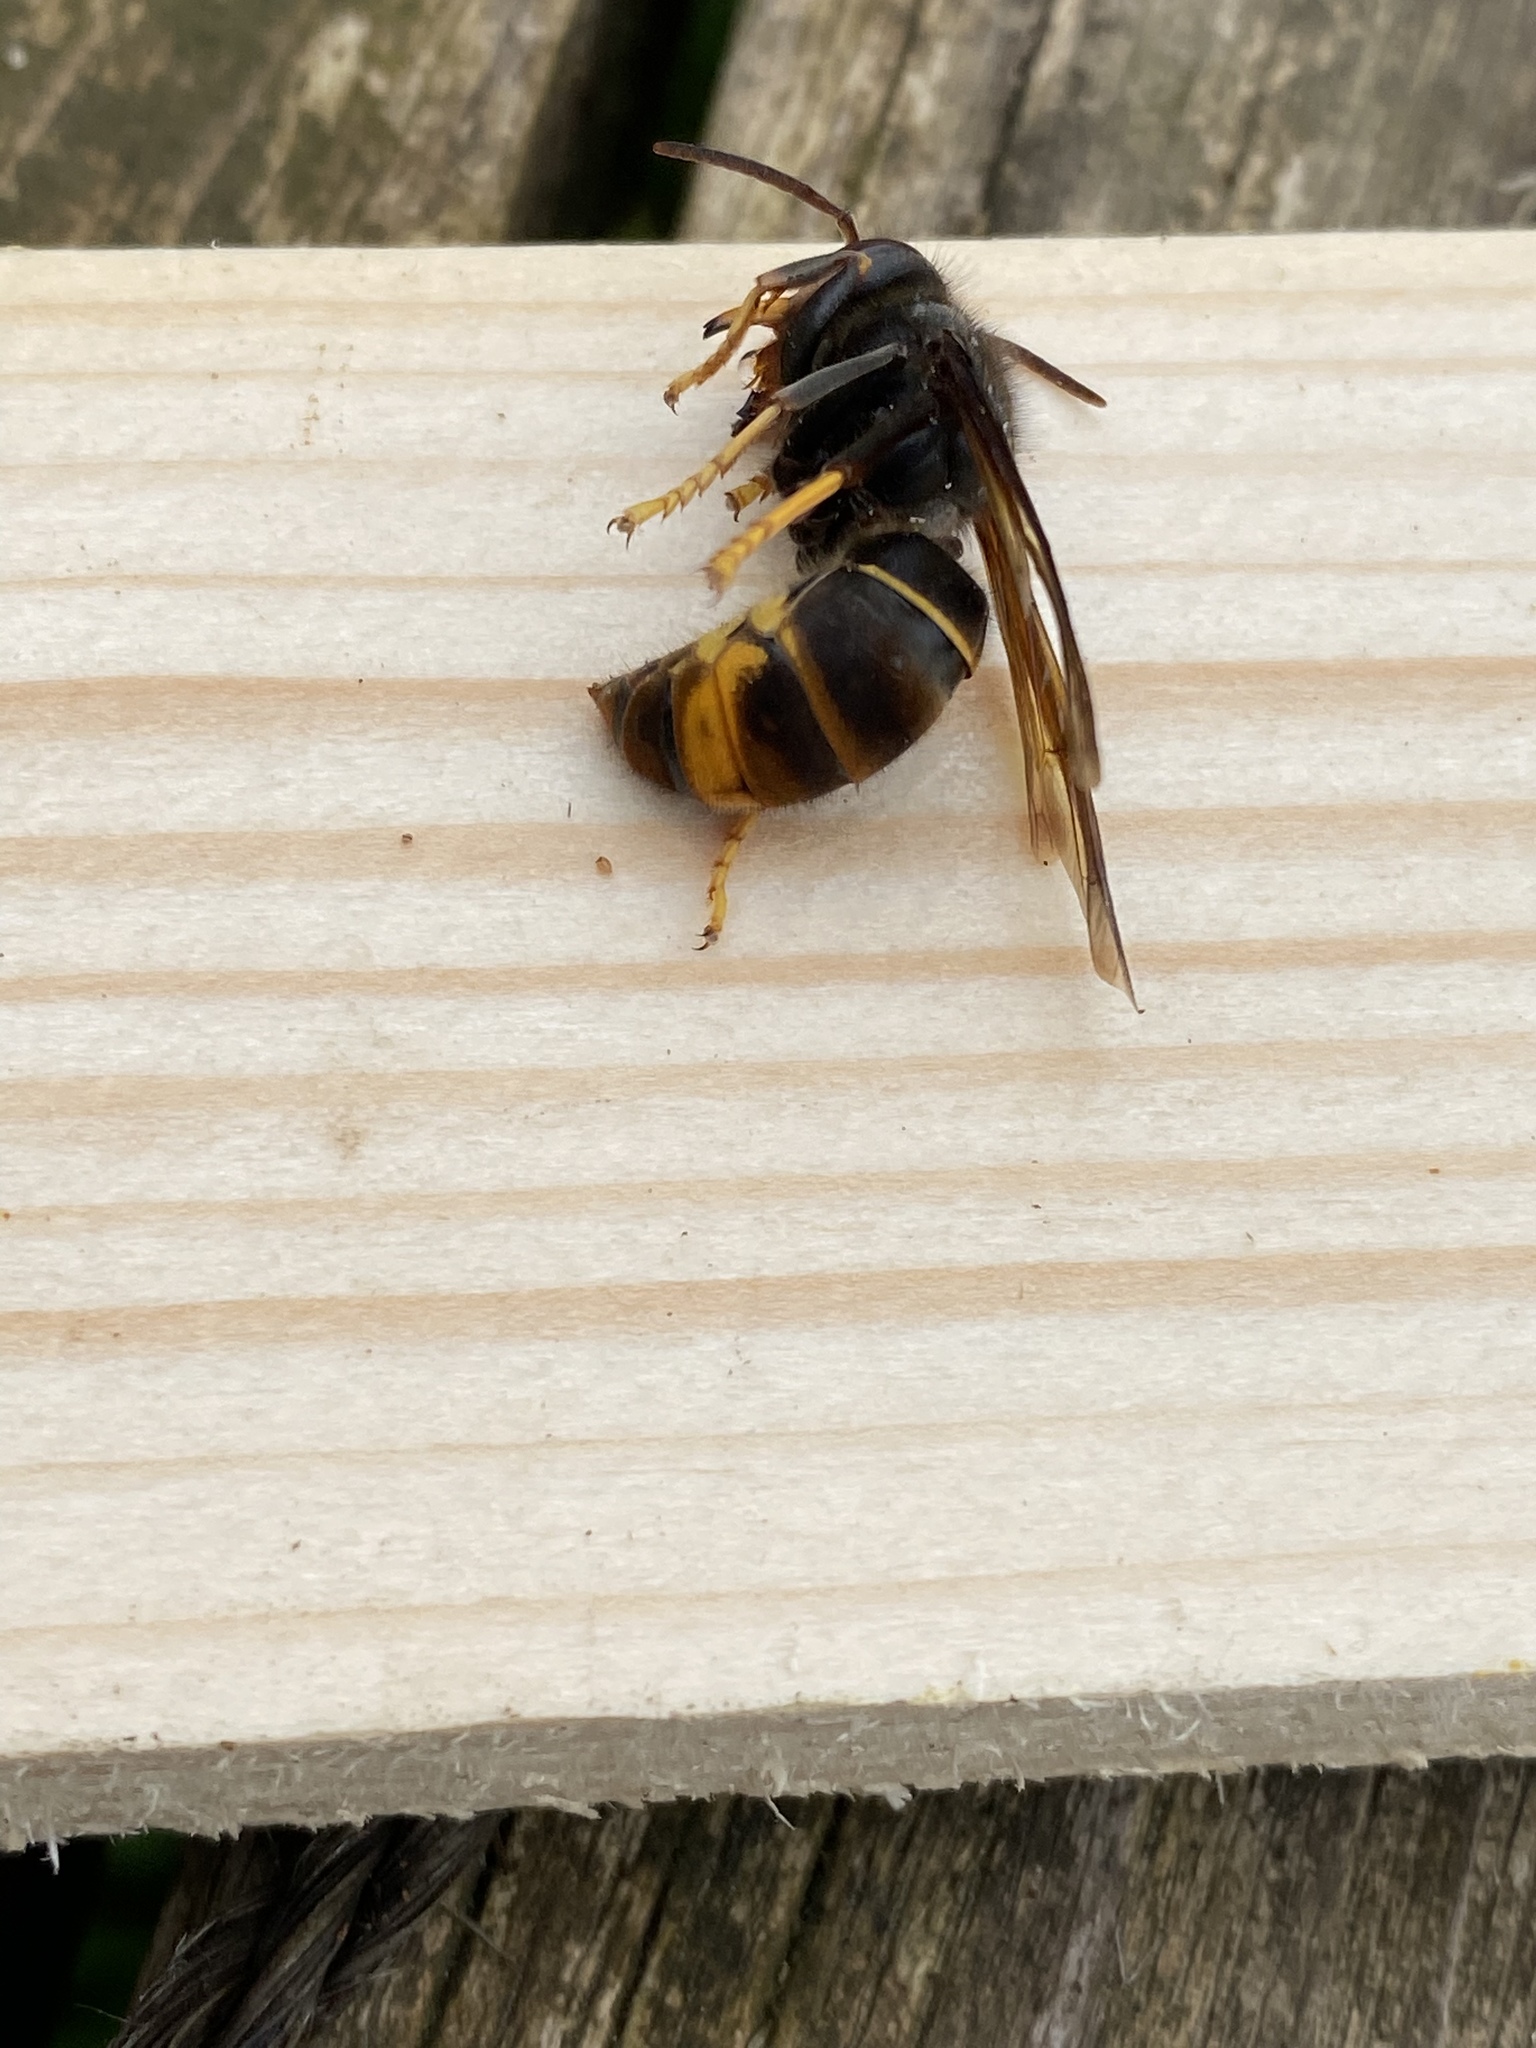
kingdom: Animalia
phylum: Arthropoda
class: Insecta
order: Hymenoptera
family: Vespidae
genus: Vespa
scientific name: Vespa velutina
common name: Asian hornet
